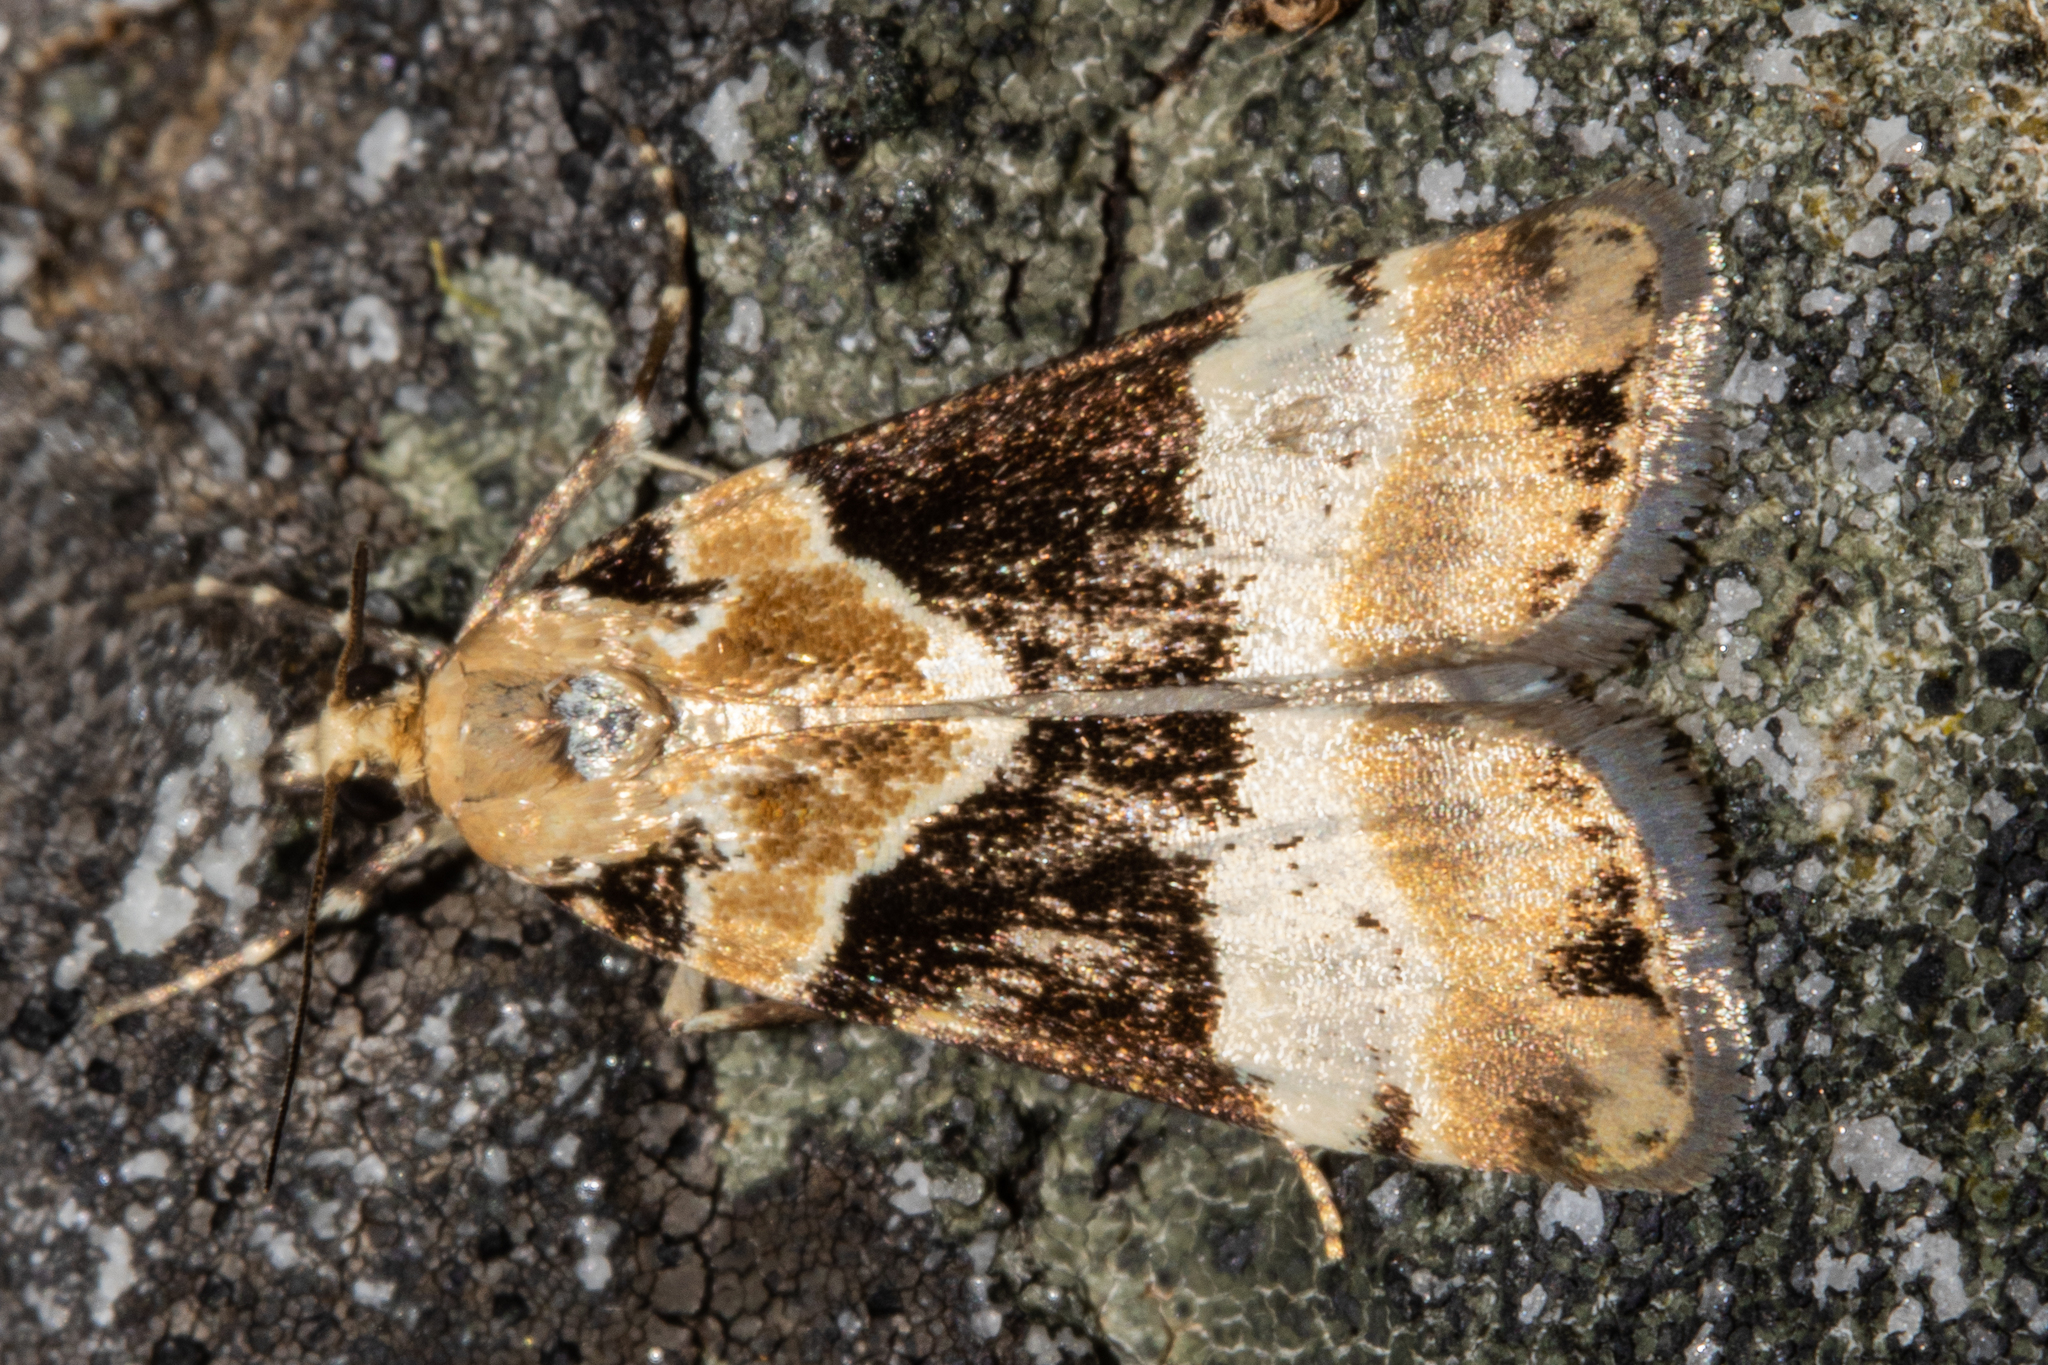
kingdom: Animalia
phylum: Arthropoda
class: Insecta
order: Lepidoptera
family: Crambidae
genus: Eudonia
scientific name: Eudonia aspidota
